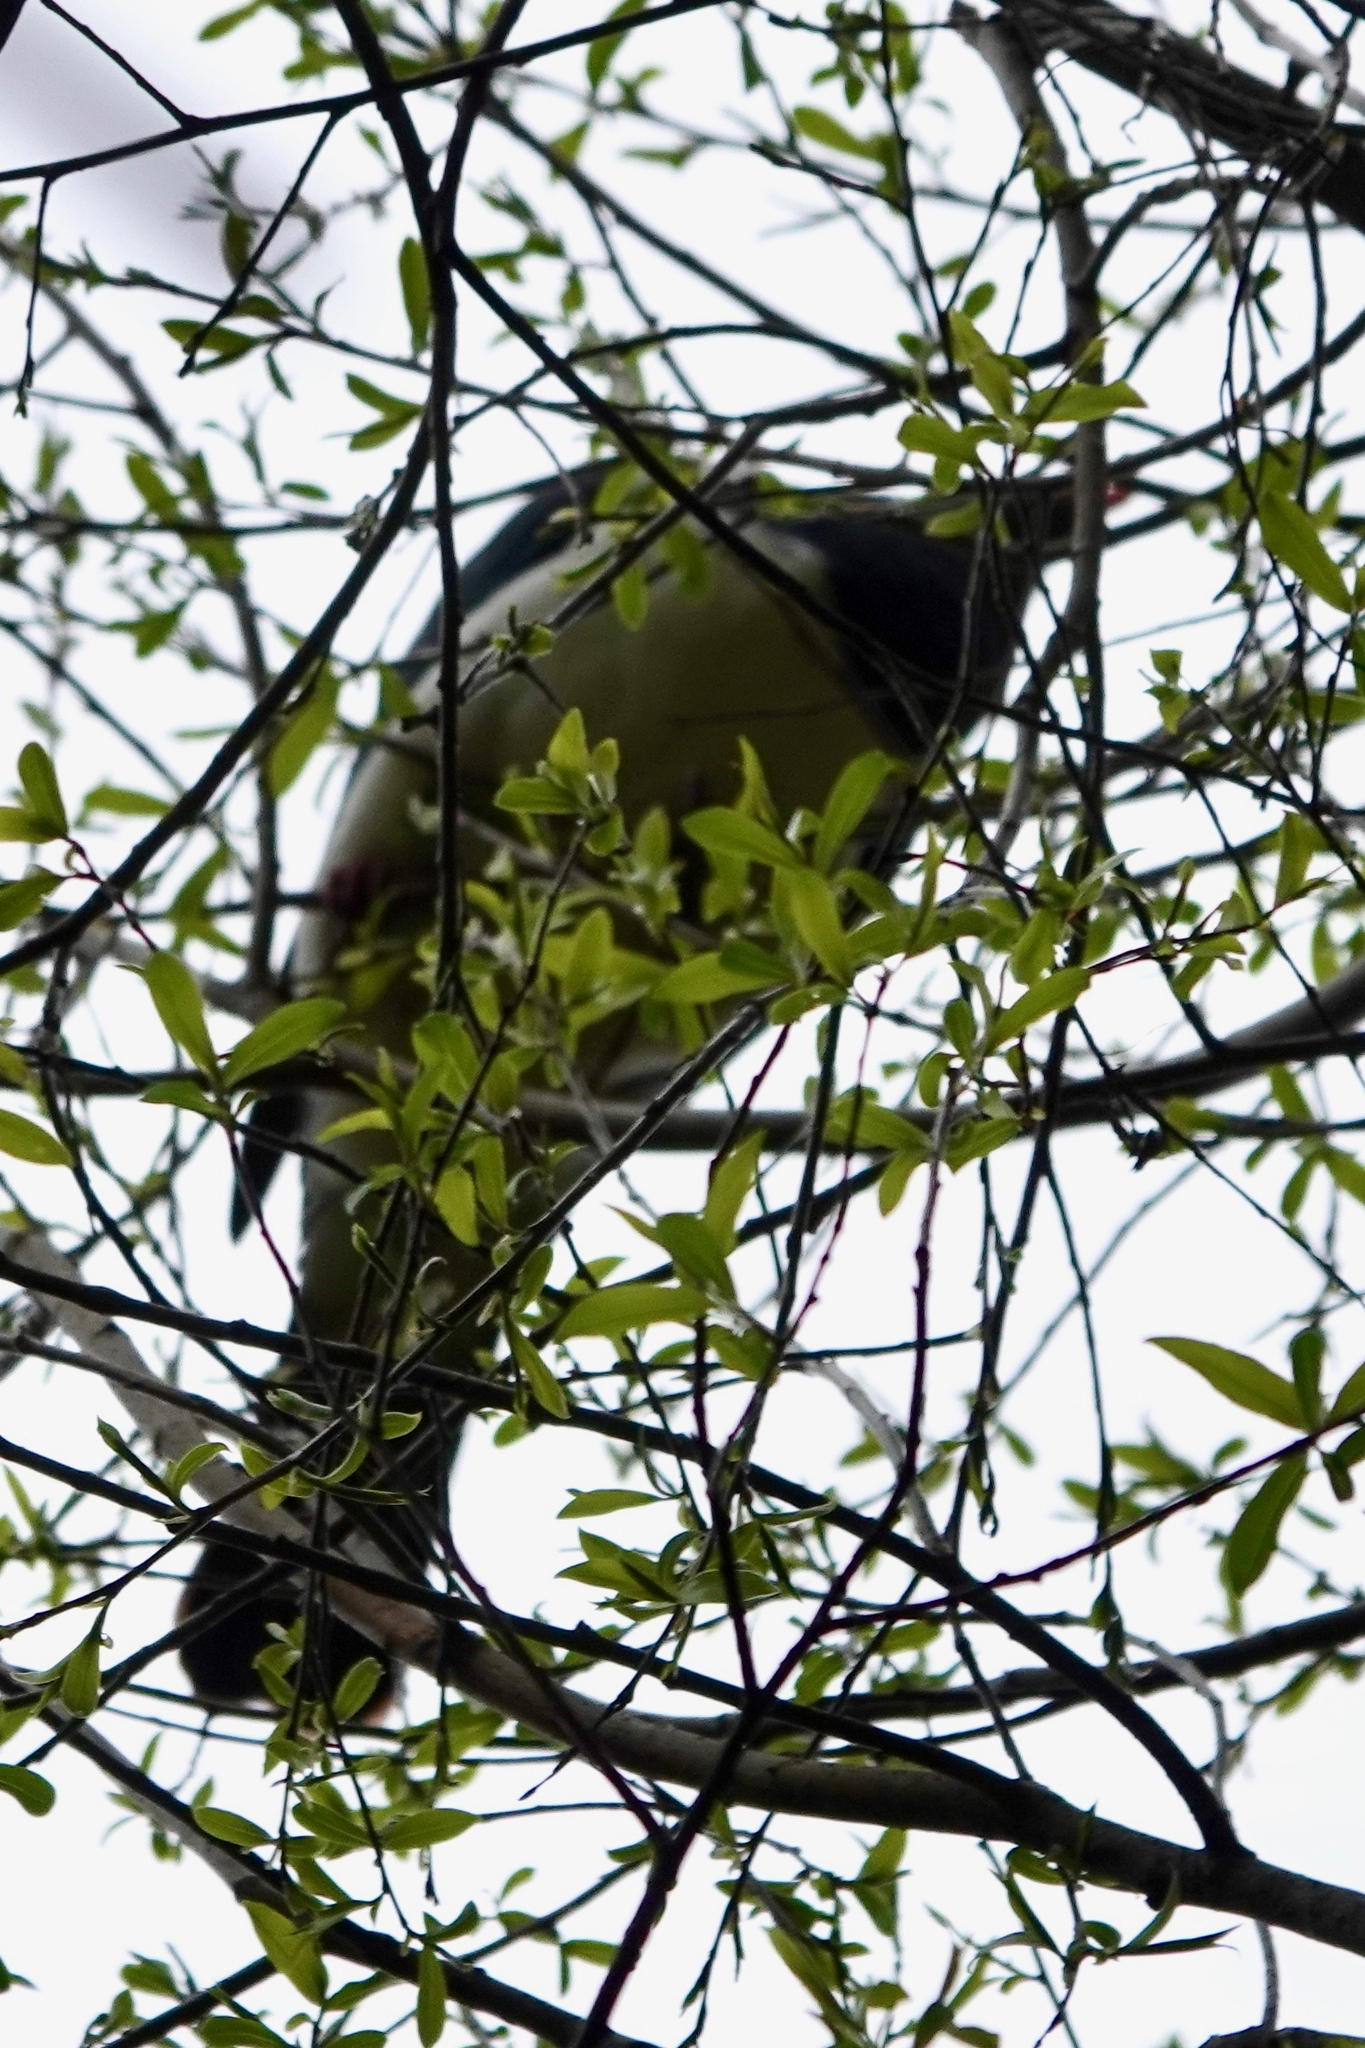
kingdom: Animalia
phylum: Chordata
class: Aves
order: Columbiformes
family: Columbidae
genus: Hemiphaga
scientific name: Hemiphaga novaeseelandiae
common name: New zealand pigeon
